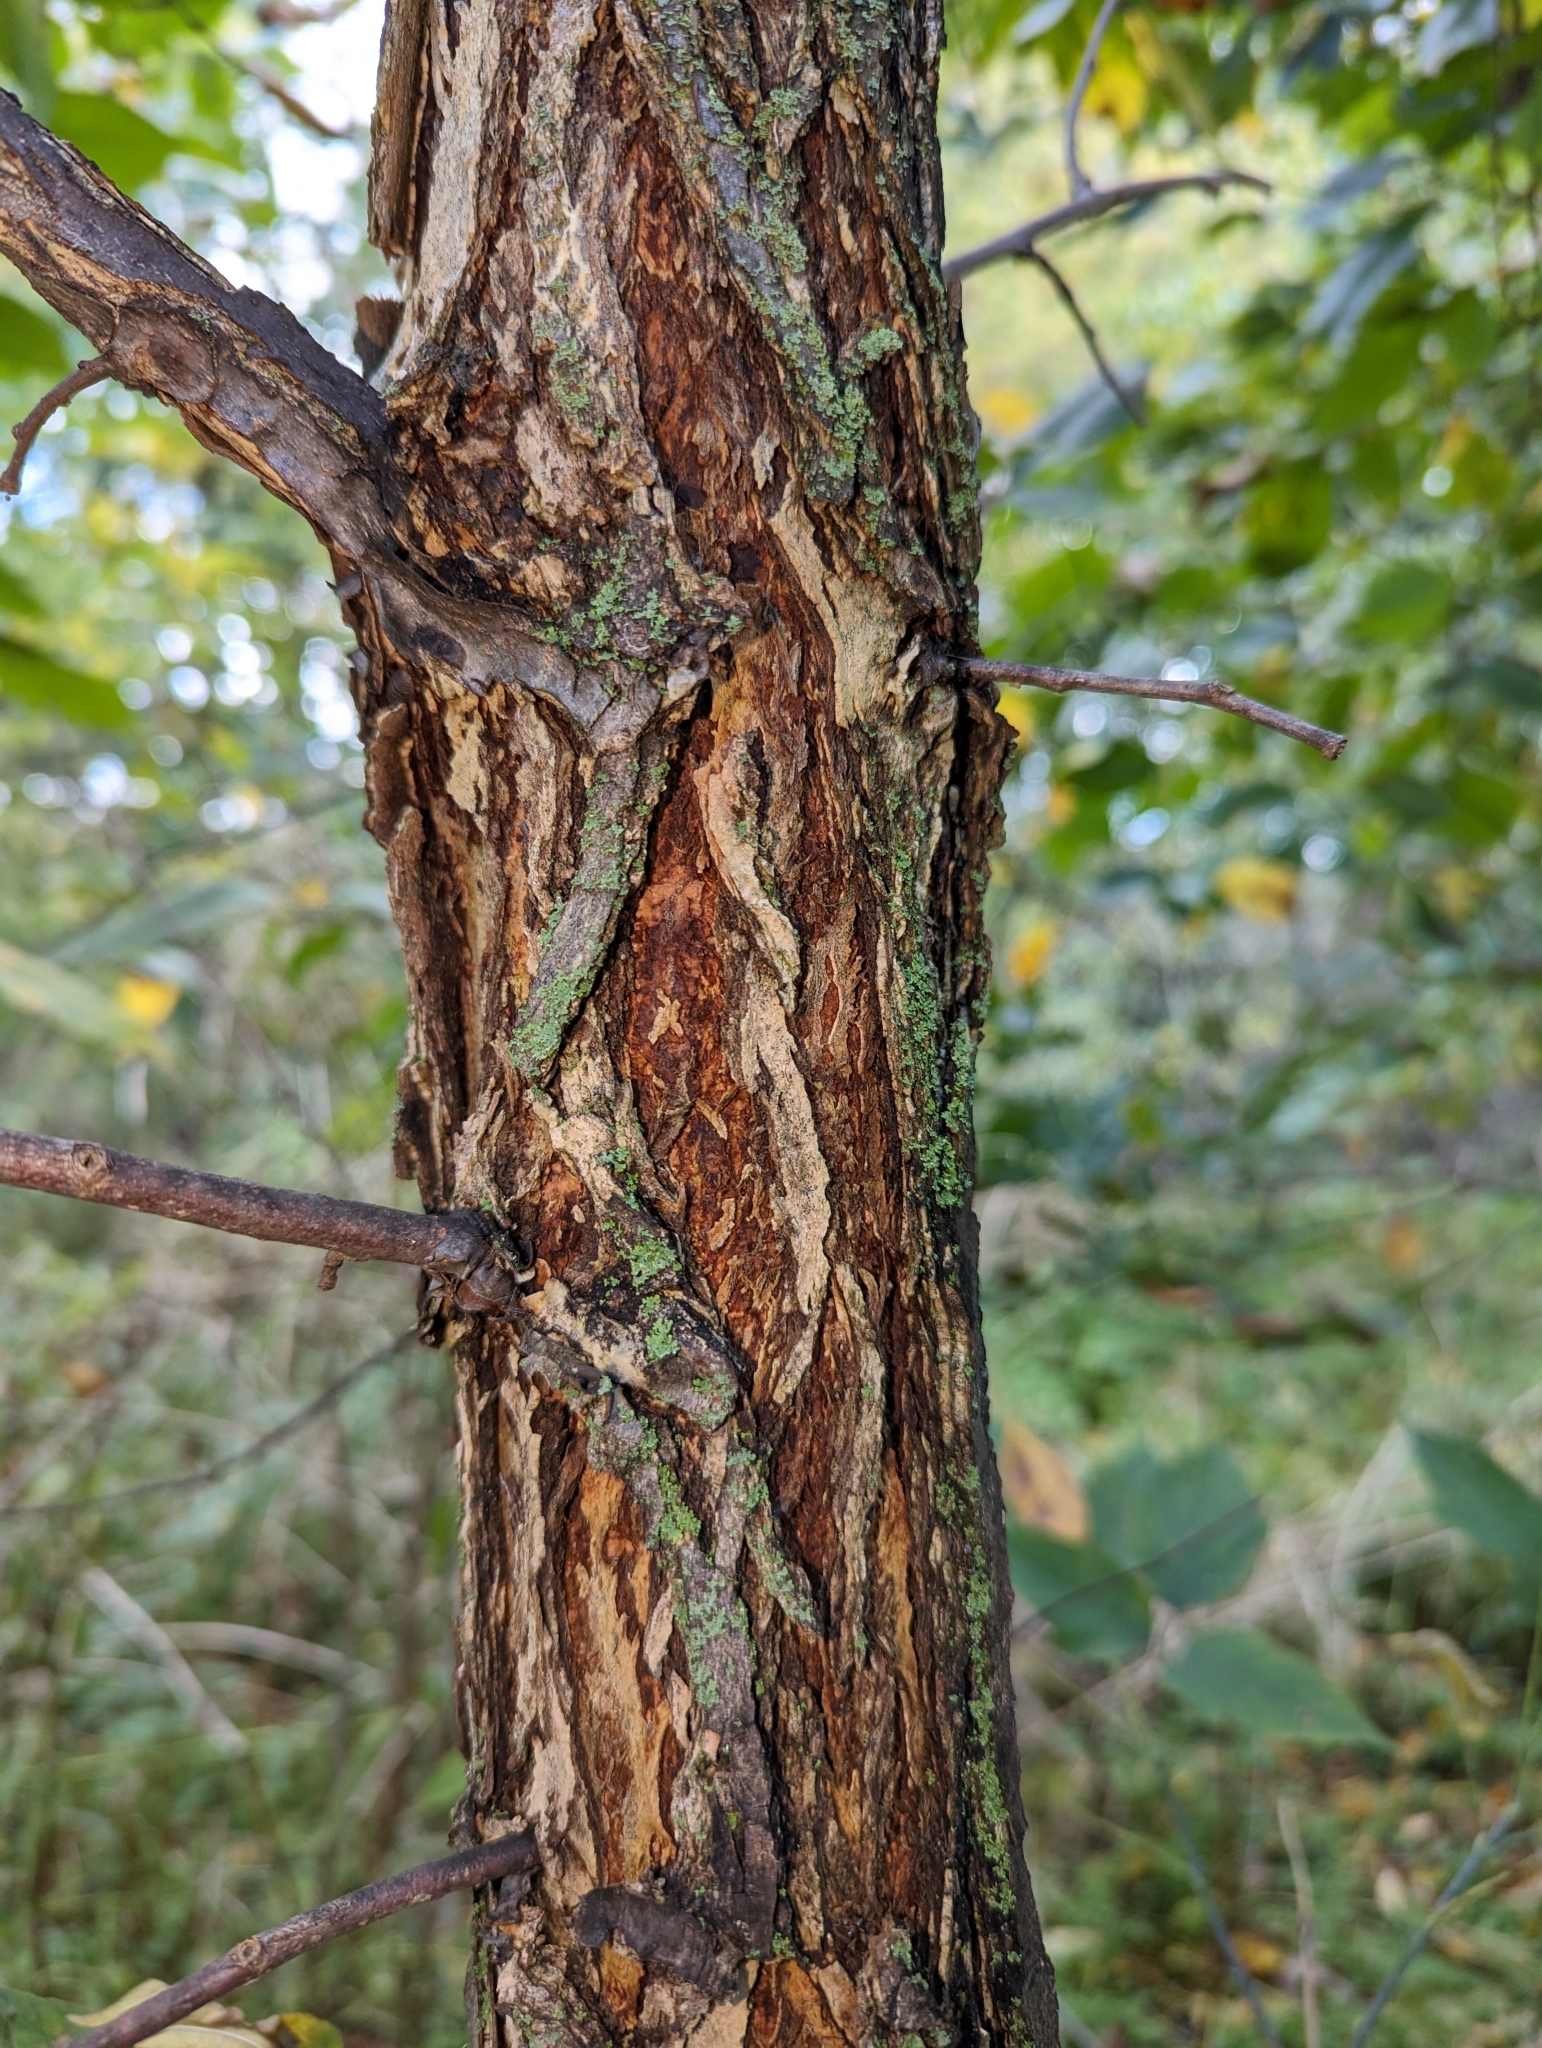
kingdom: Plantae
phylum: Tracheophyta
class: Magnoliopsida
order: Rosales
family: Ulmaceae
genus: Ulmus
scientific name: Ulmus americana
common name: American elm
